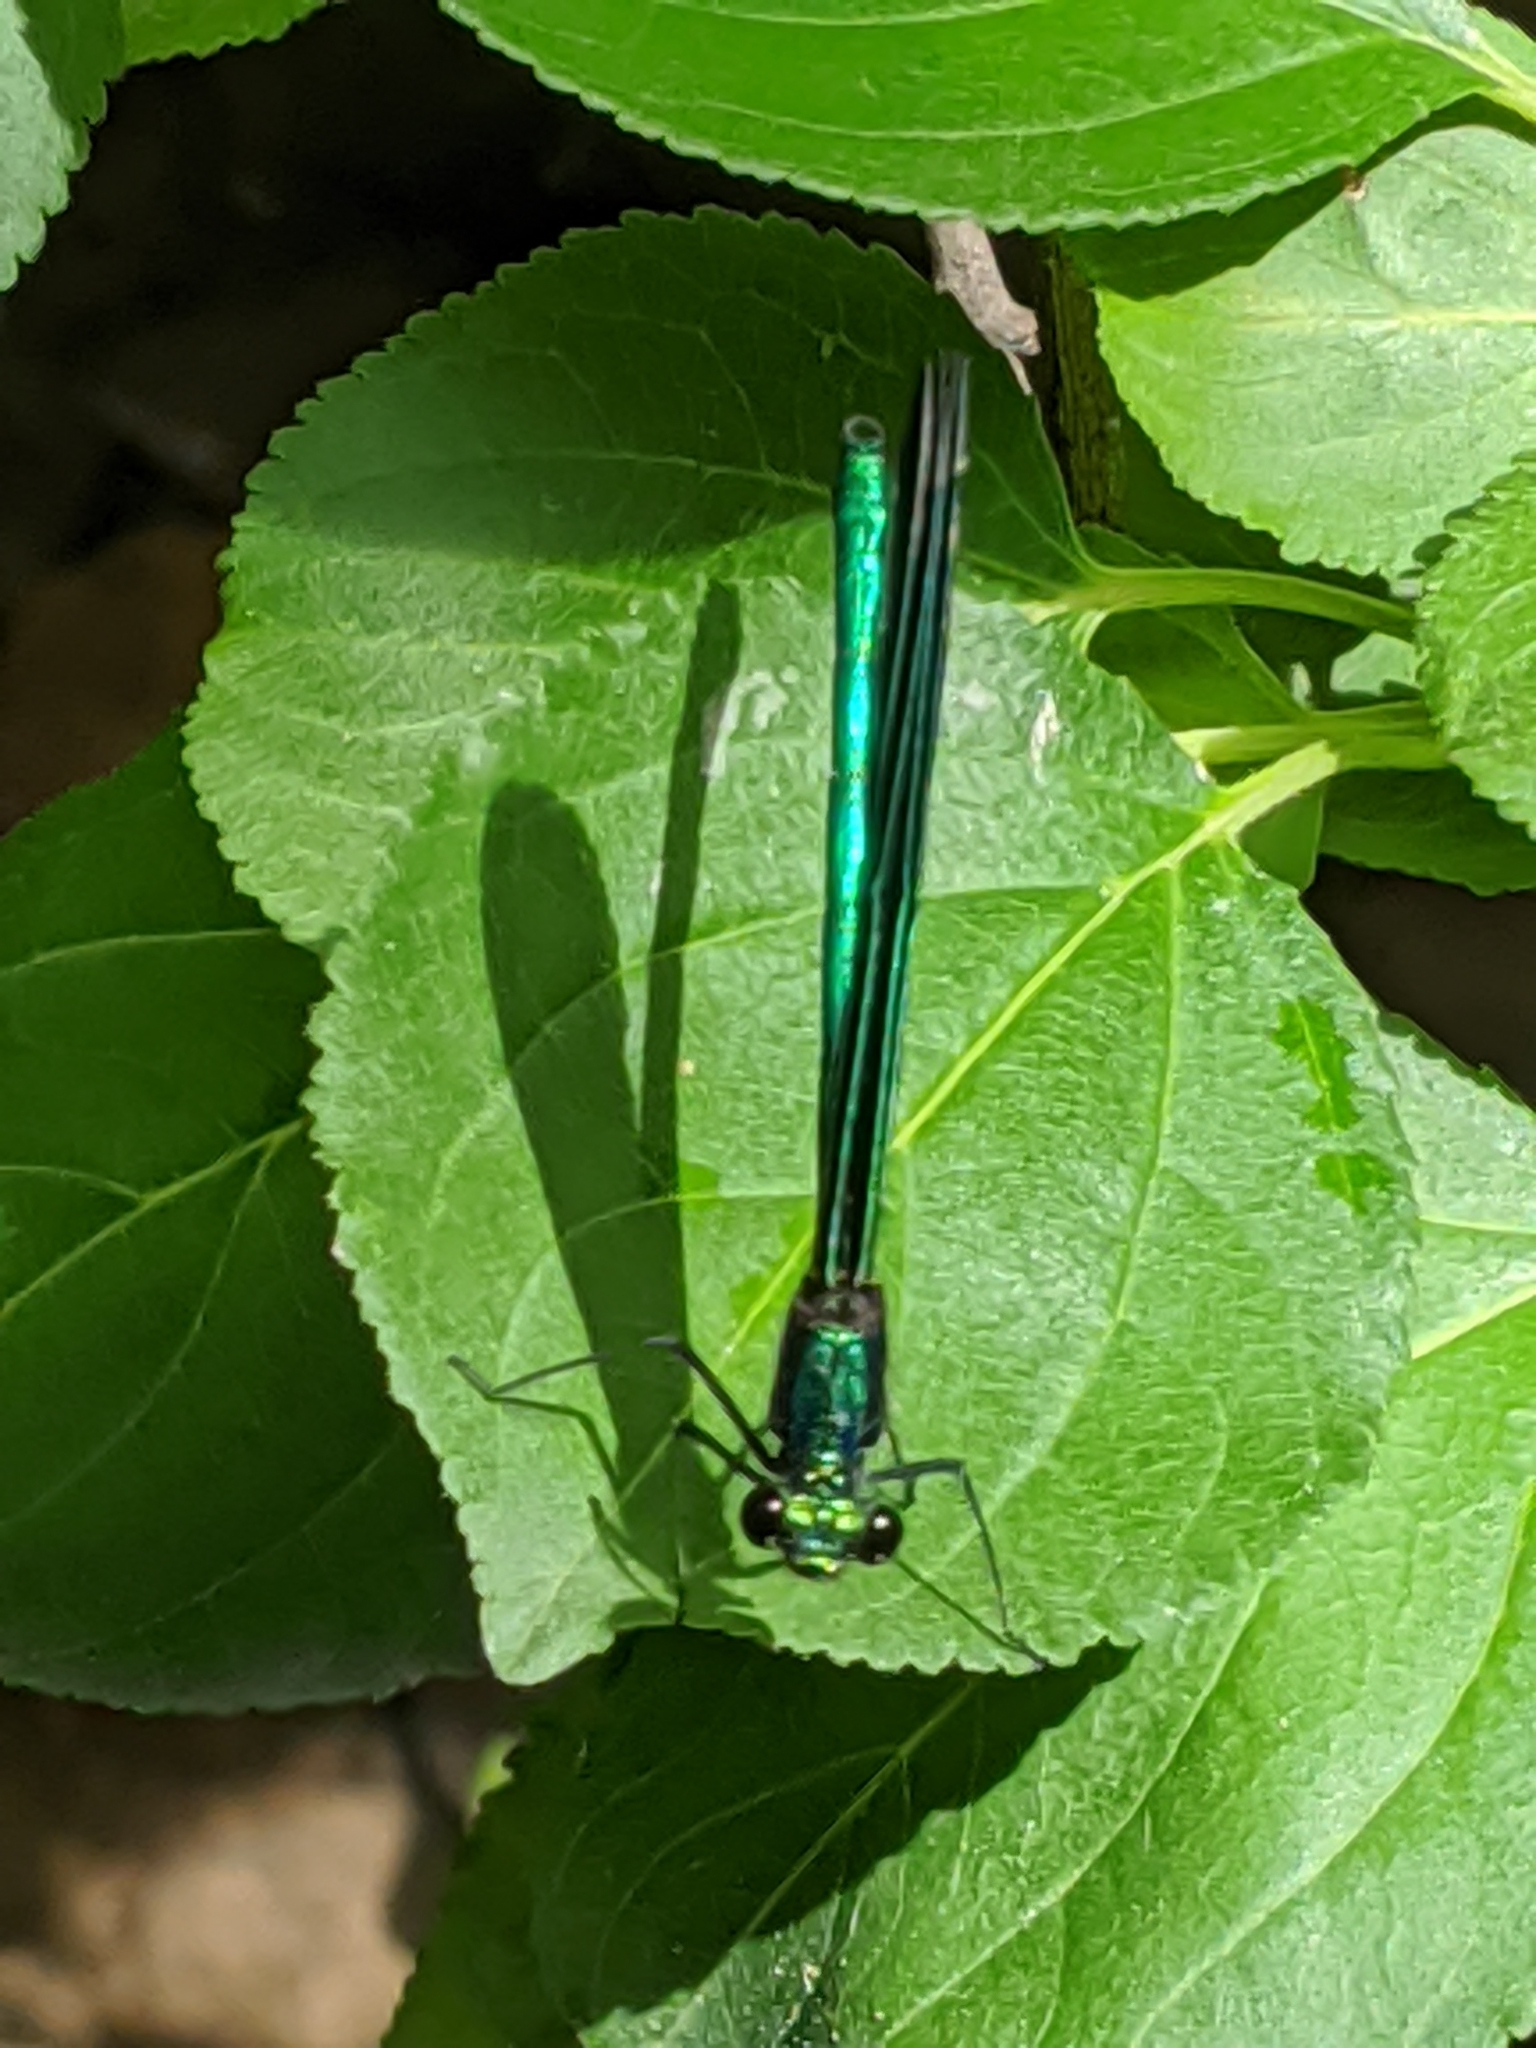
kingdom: Animalia
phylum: Arthropoda
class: Insecta
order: Odonata
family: Calopterygidae
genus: Calopteryx
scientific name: Calopteryx maculata
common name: Ebony jewelwing
